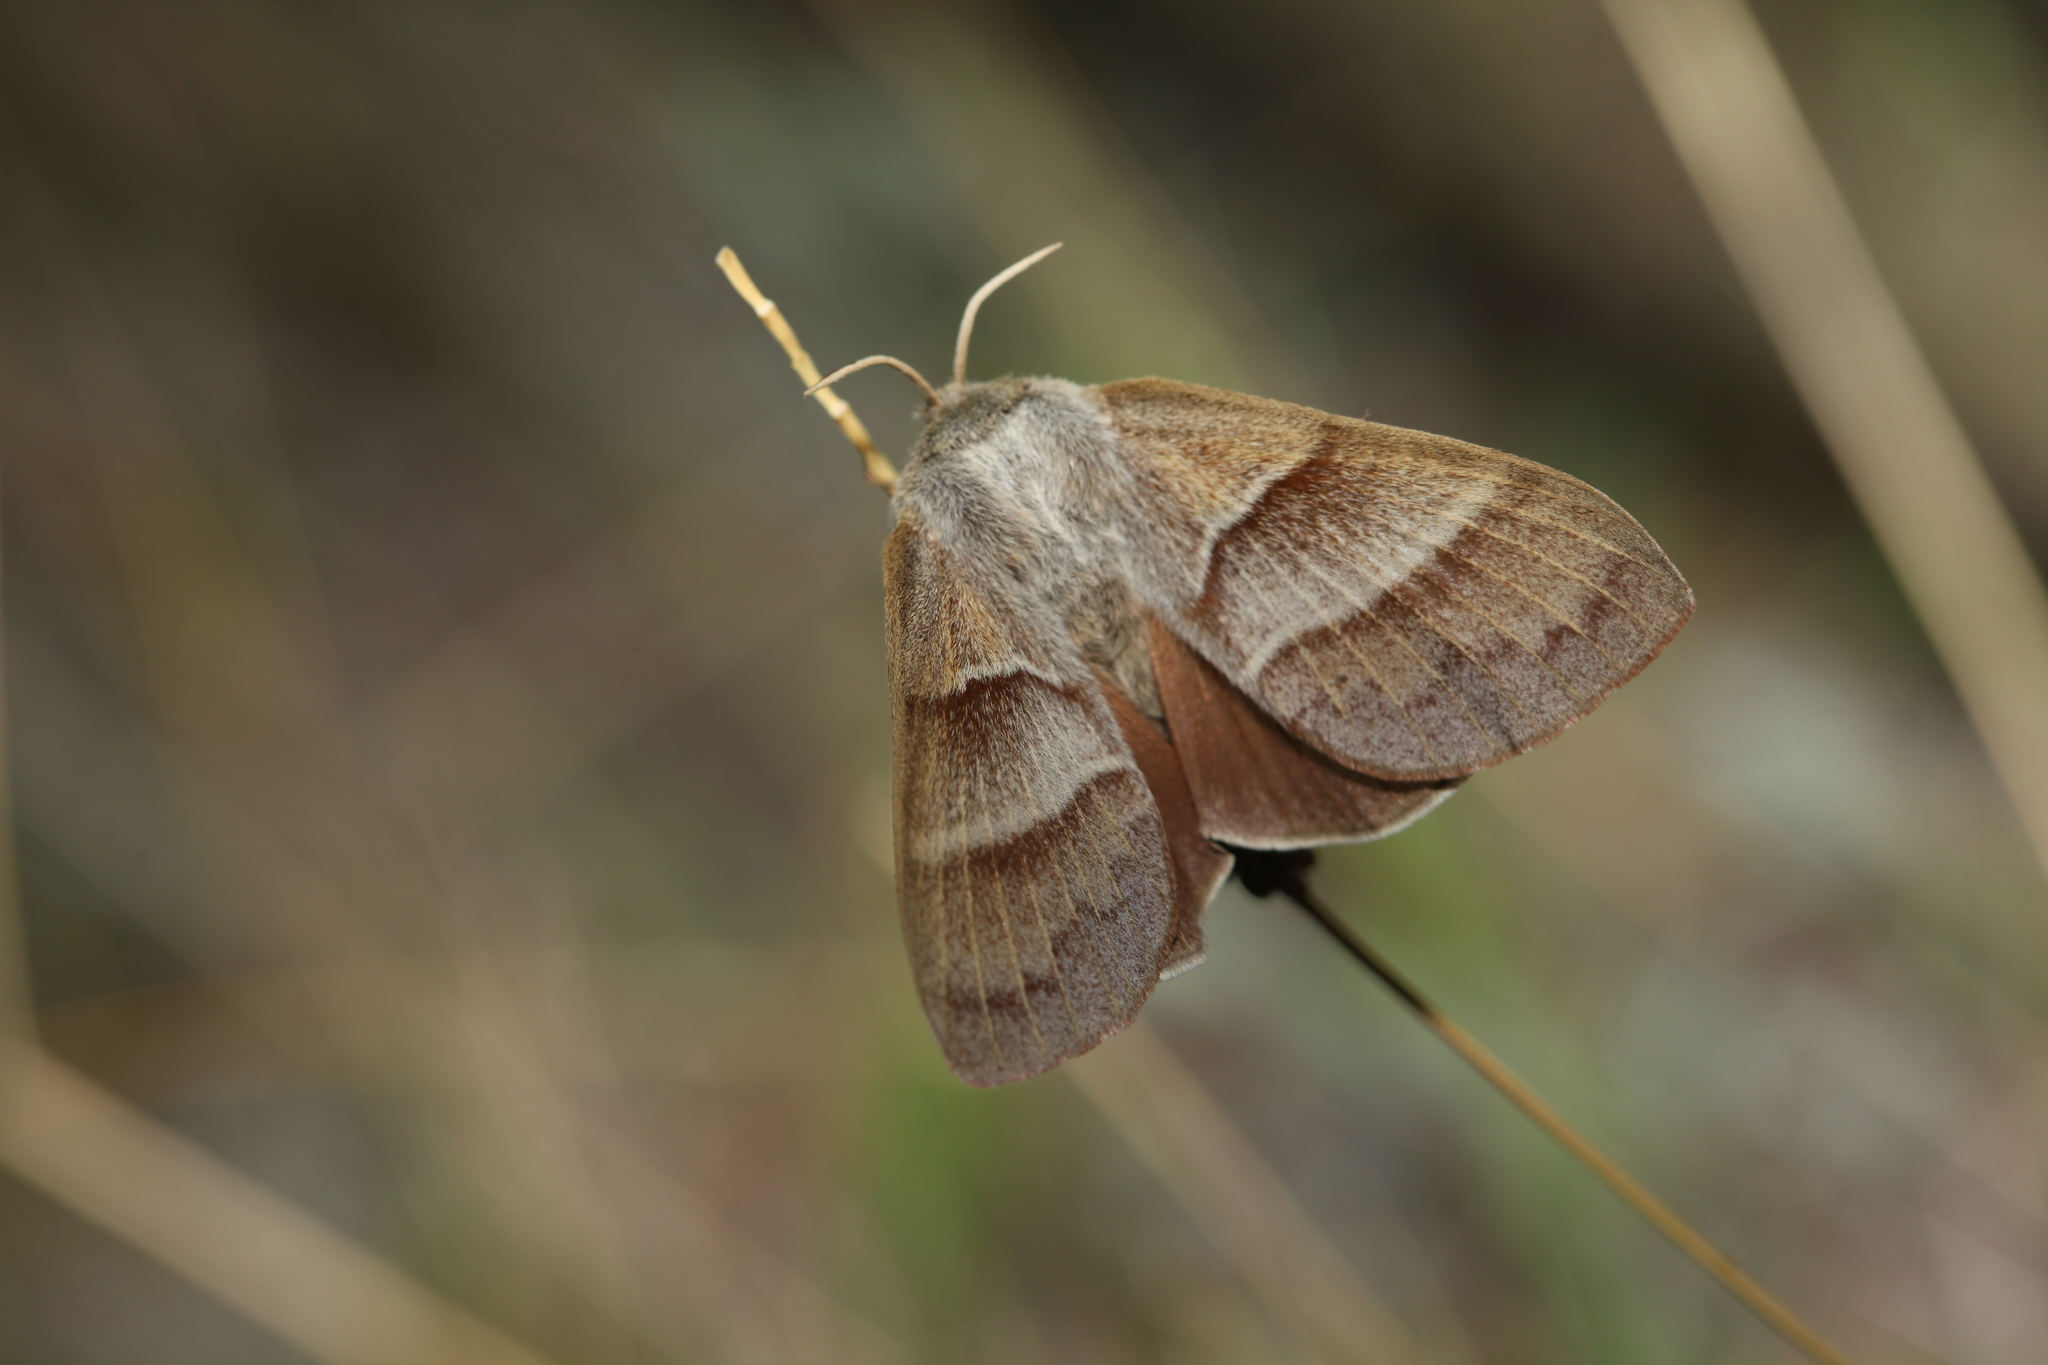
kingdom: Animalia
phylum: Arthropoda
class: Insecta
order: Lepidoptera
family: Lasiocampidae
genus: Macrothylacia
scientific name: Macrothylacia rubi
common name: Fox moth
